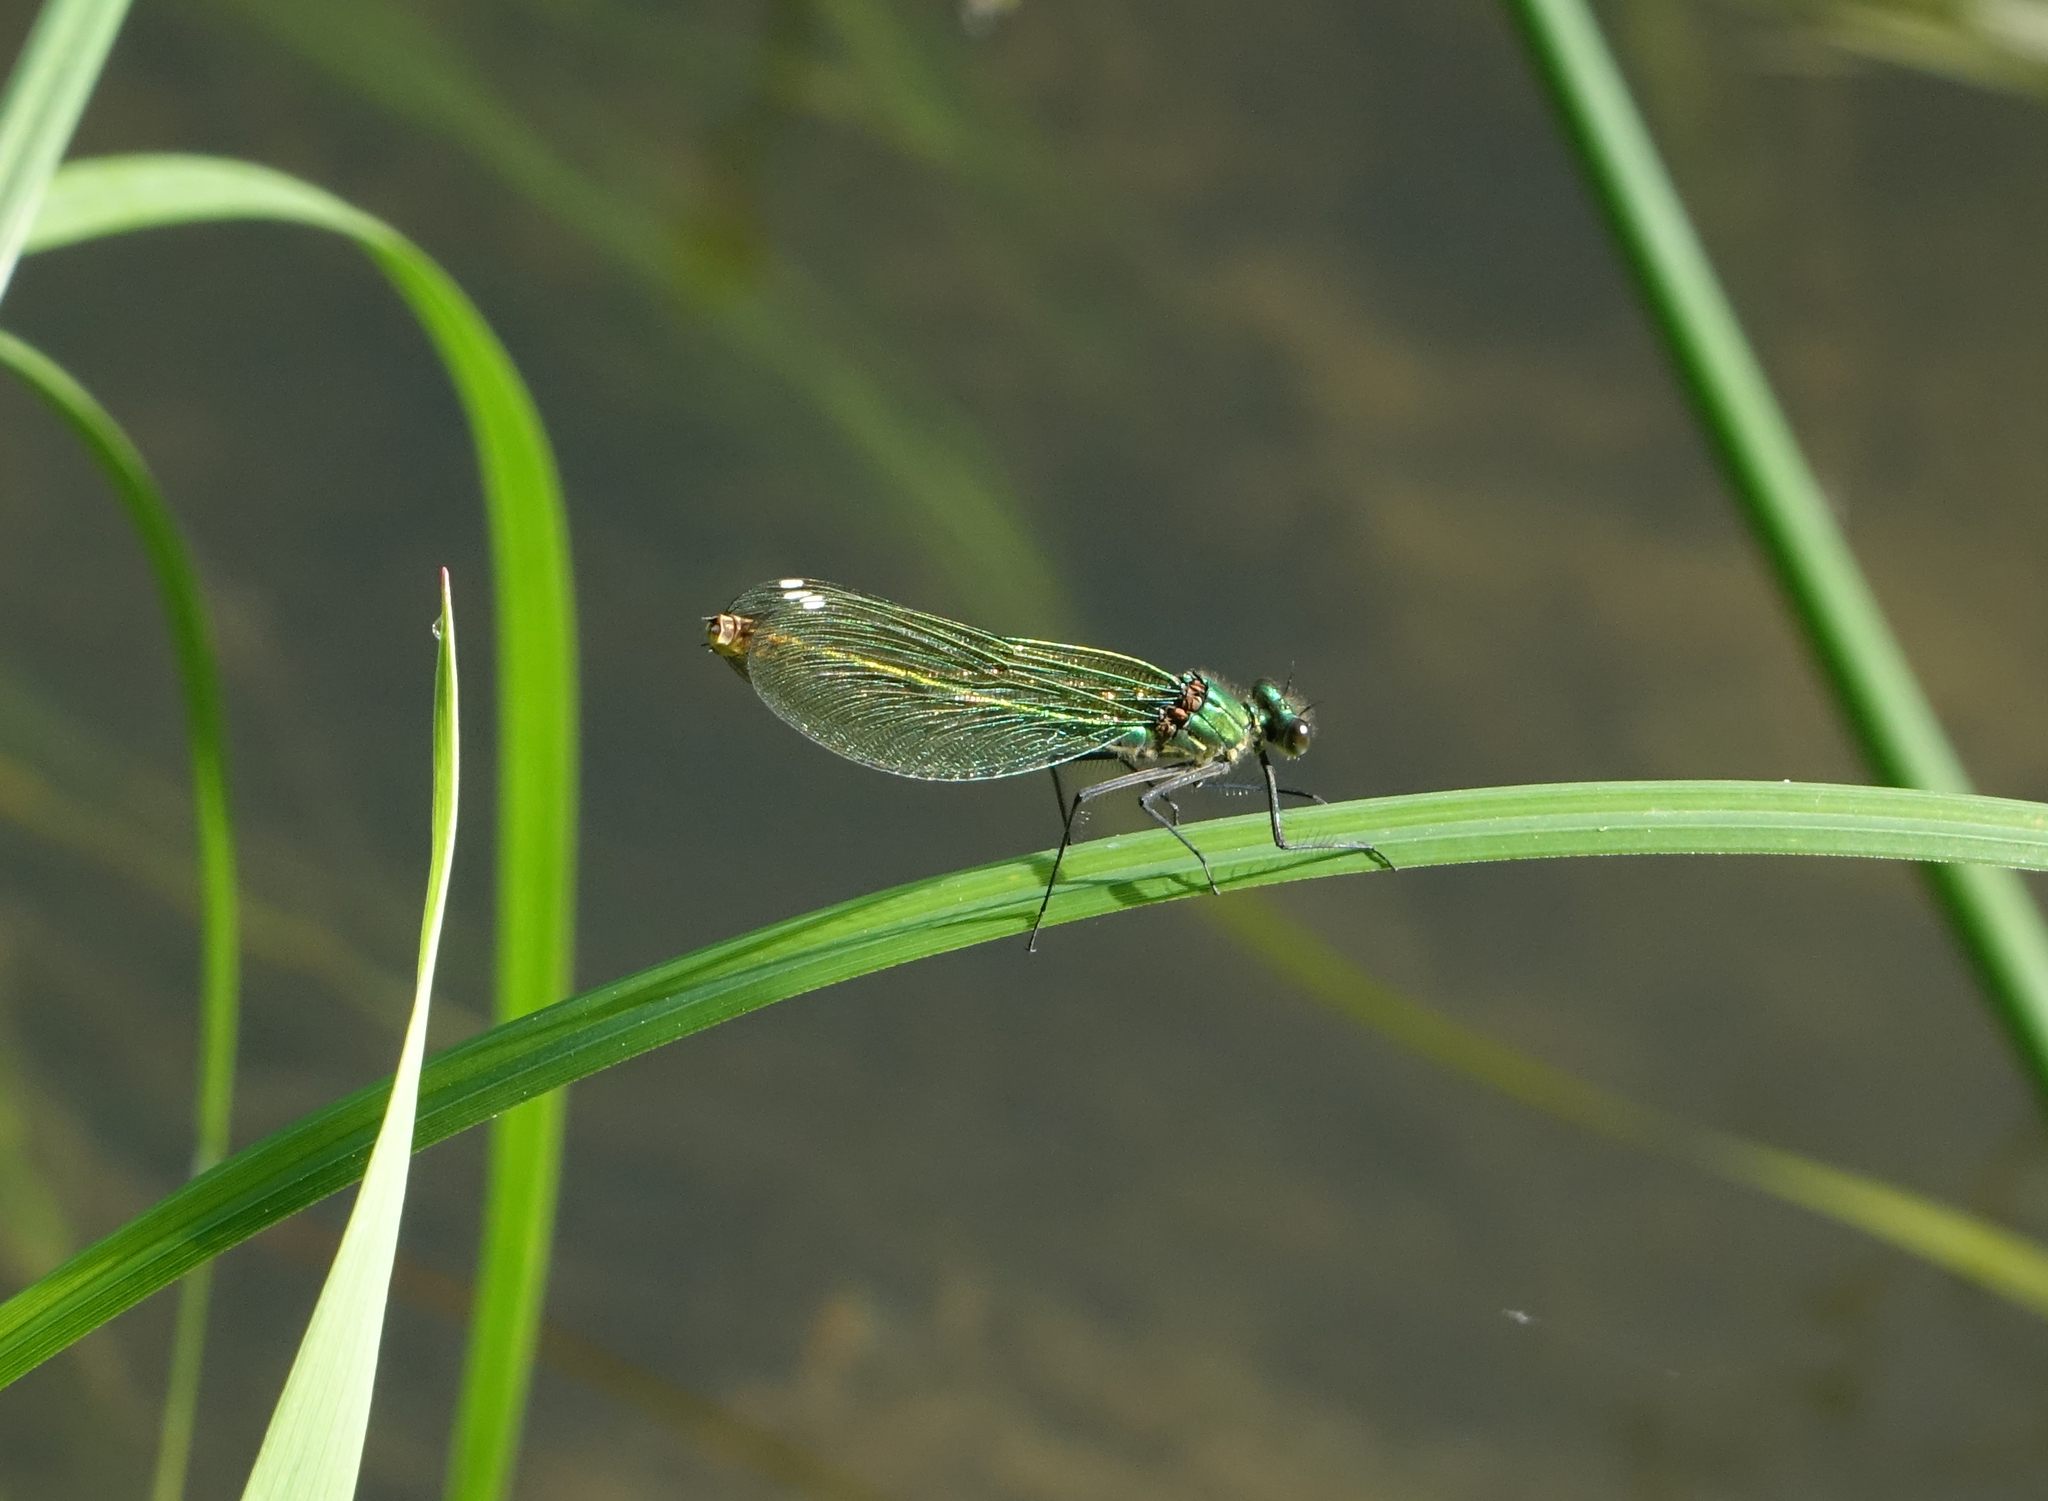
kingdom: Animalia
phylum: Arthropoda
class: Insecta
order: Odonata
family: Calopterygidae
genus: Calopteryx
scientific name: Calopteryx splendens
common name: Banded demoiselle
